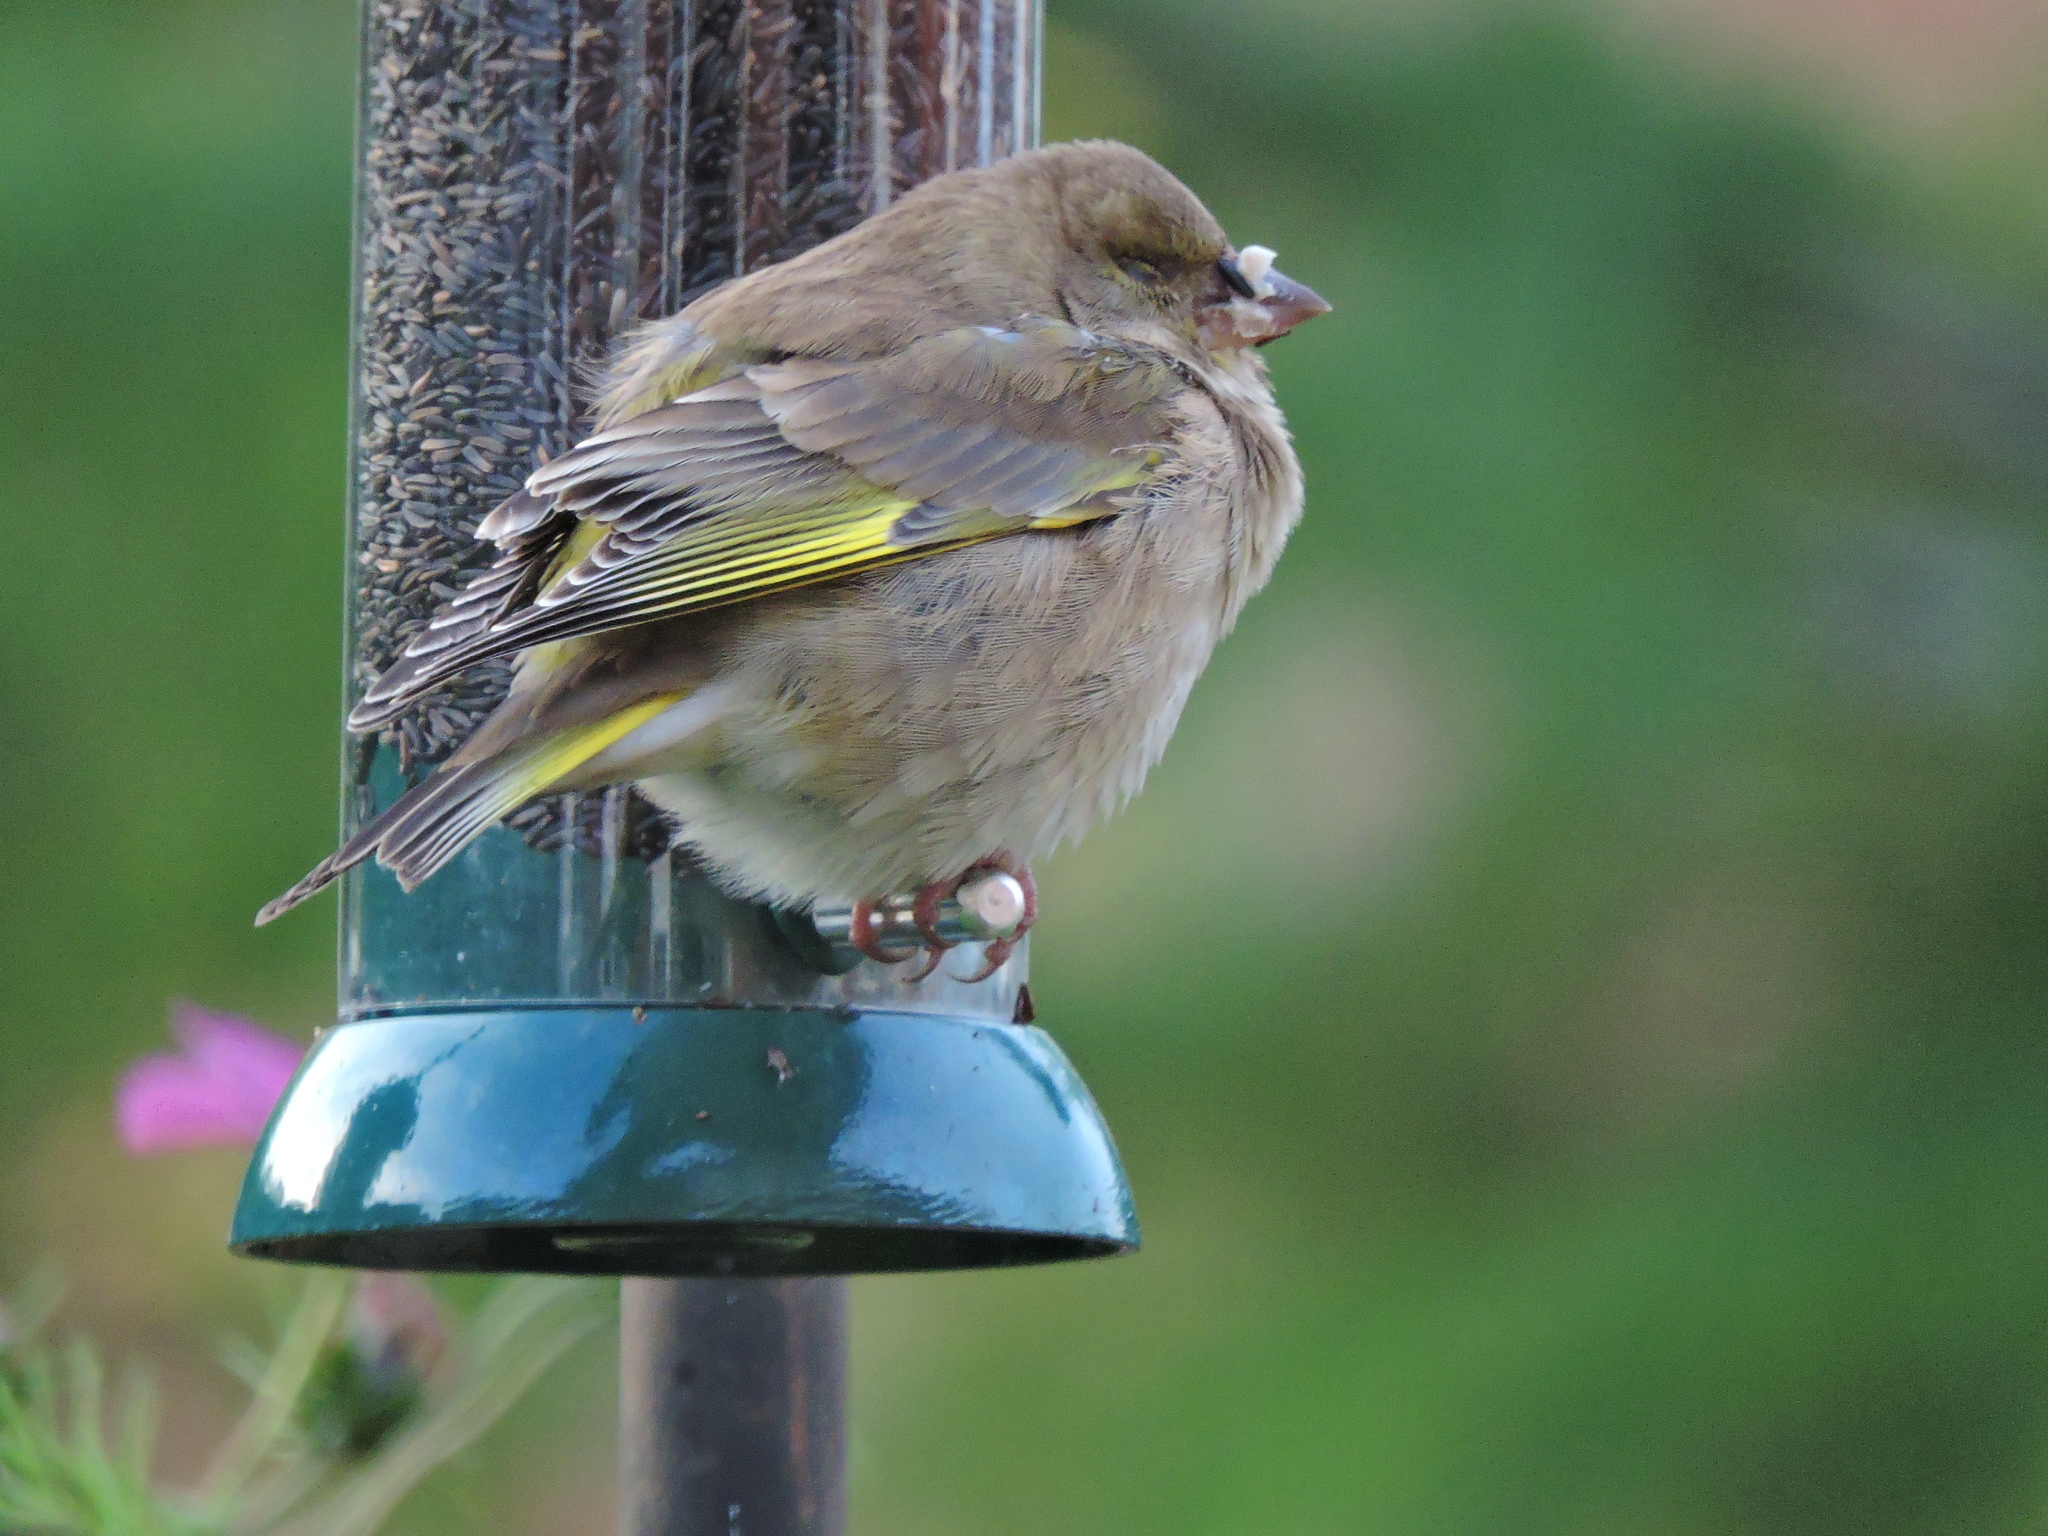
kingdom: Plantae
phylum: Tracheophyta
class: Liliopsida
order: Poales
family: Poaceae
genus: Chloris
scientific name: Chloris chloris
